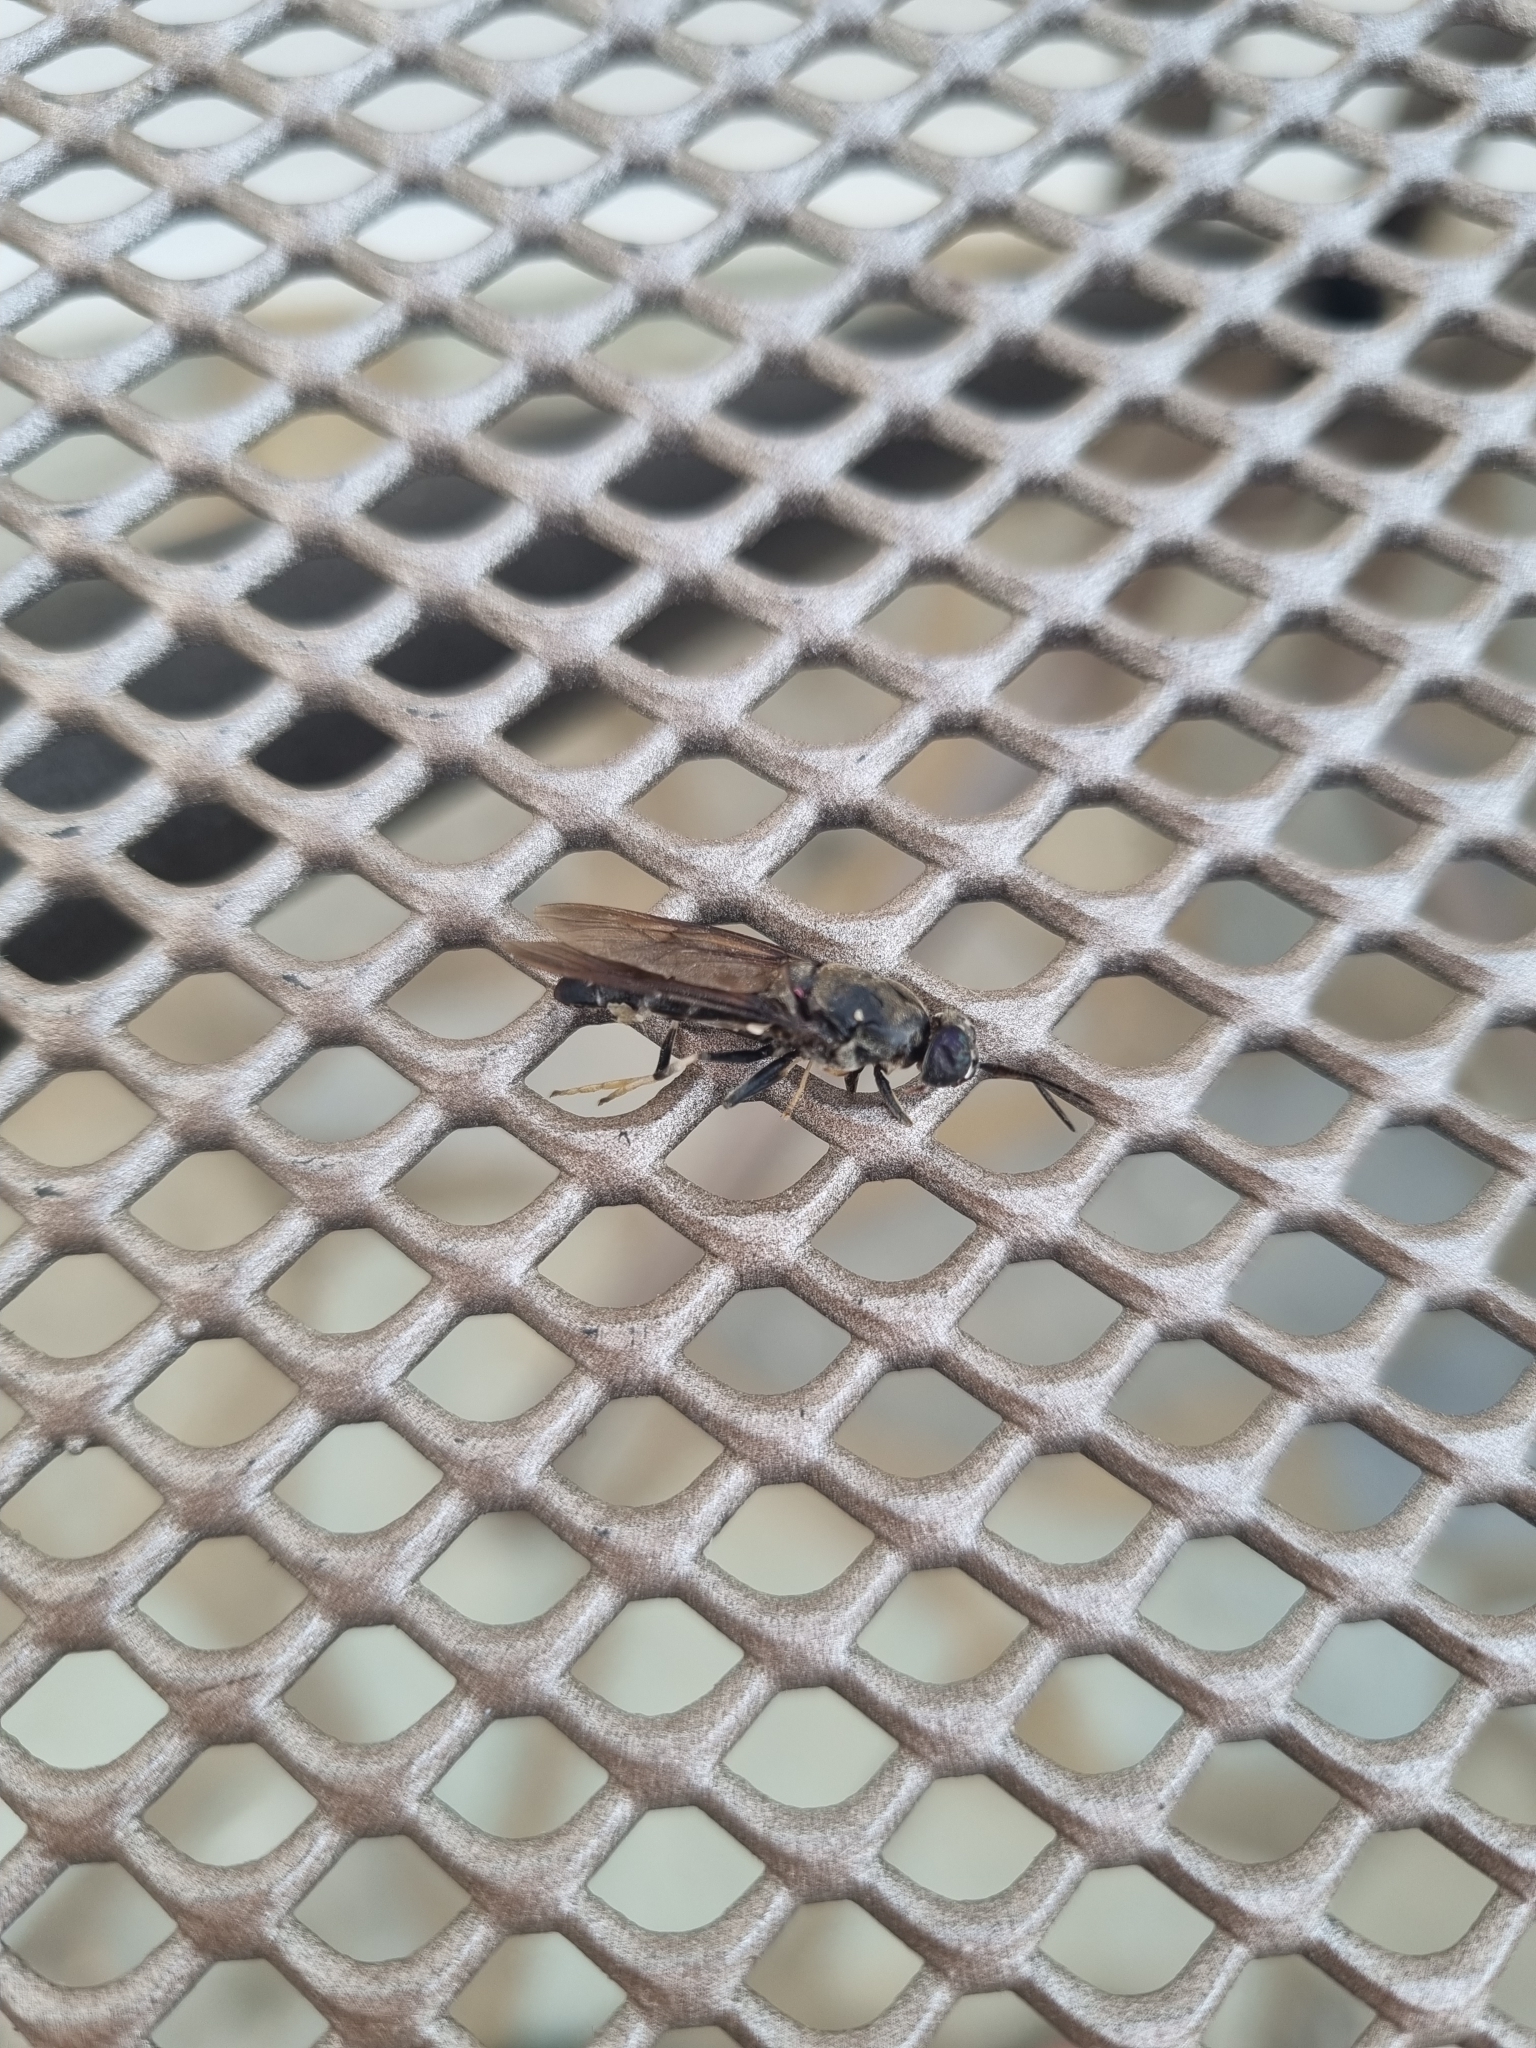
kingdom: Animalia
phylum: Arthropoda
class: Insecta
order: Diptera
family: Stratiomyidae
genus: Hermetia
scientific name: Hermetia illucens
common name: Black soldier fly
